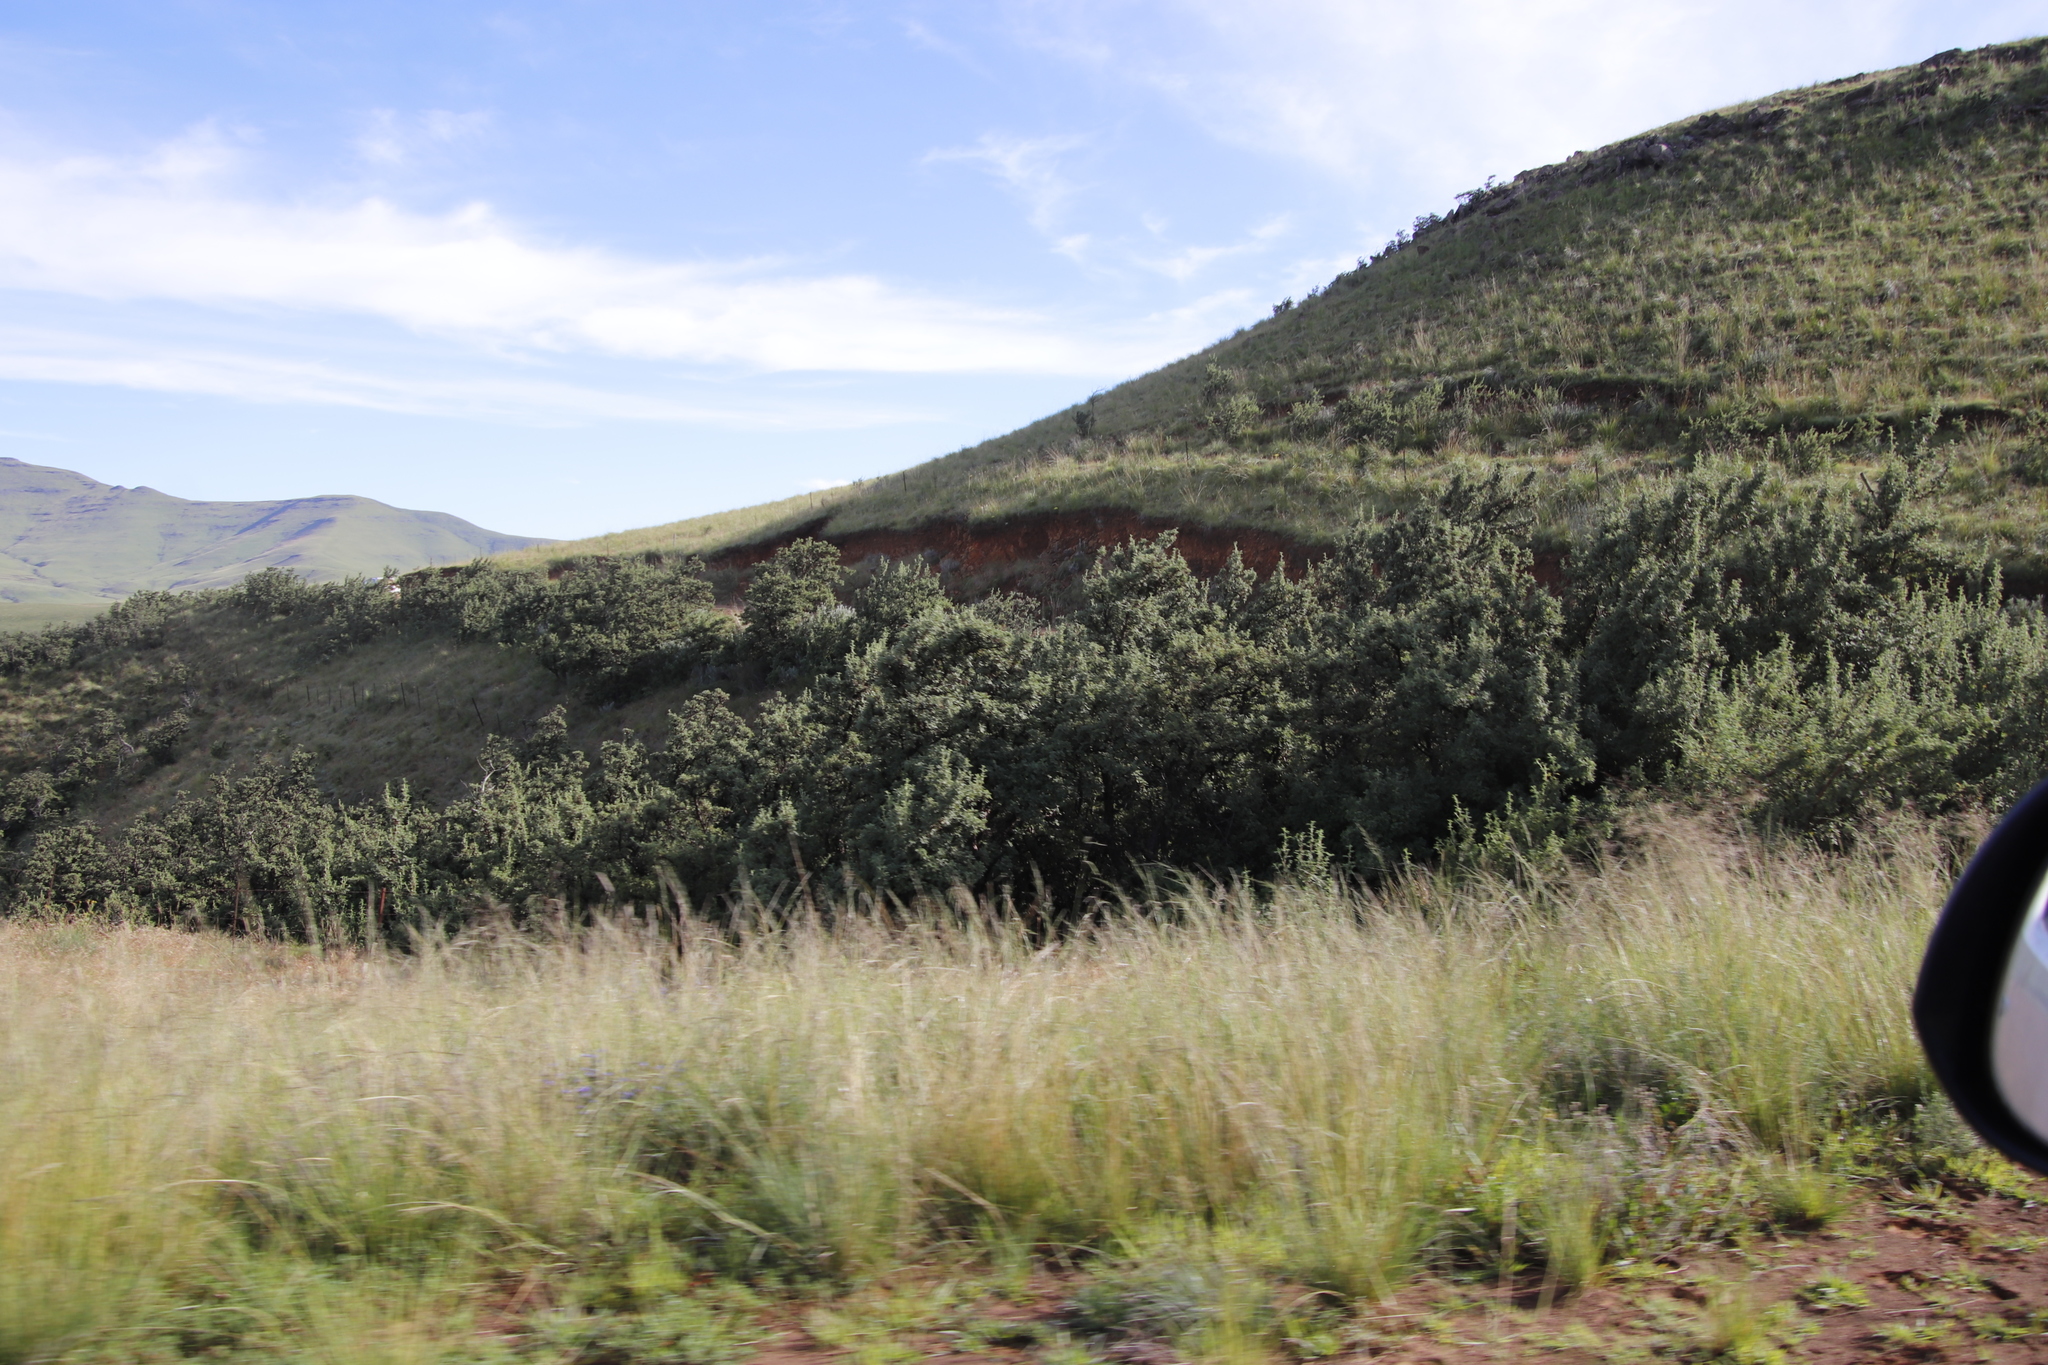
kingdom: Plantae
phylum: Tracheophyta
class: Magnoliopsida
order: Rosales
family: Rosaceae
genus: Leucosidea
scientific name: Leucosidea sericea
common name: Oldwood
